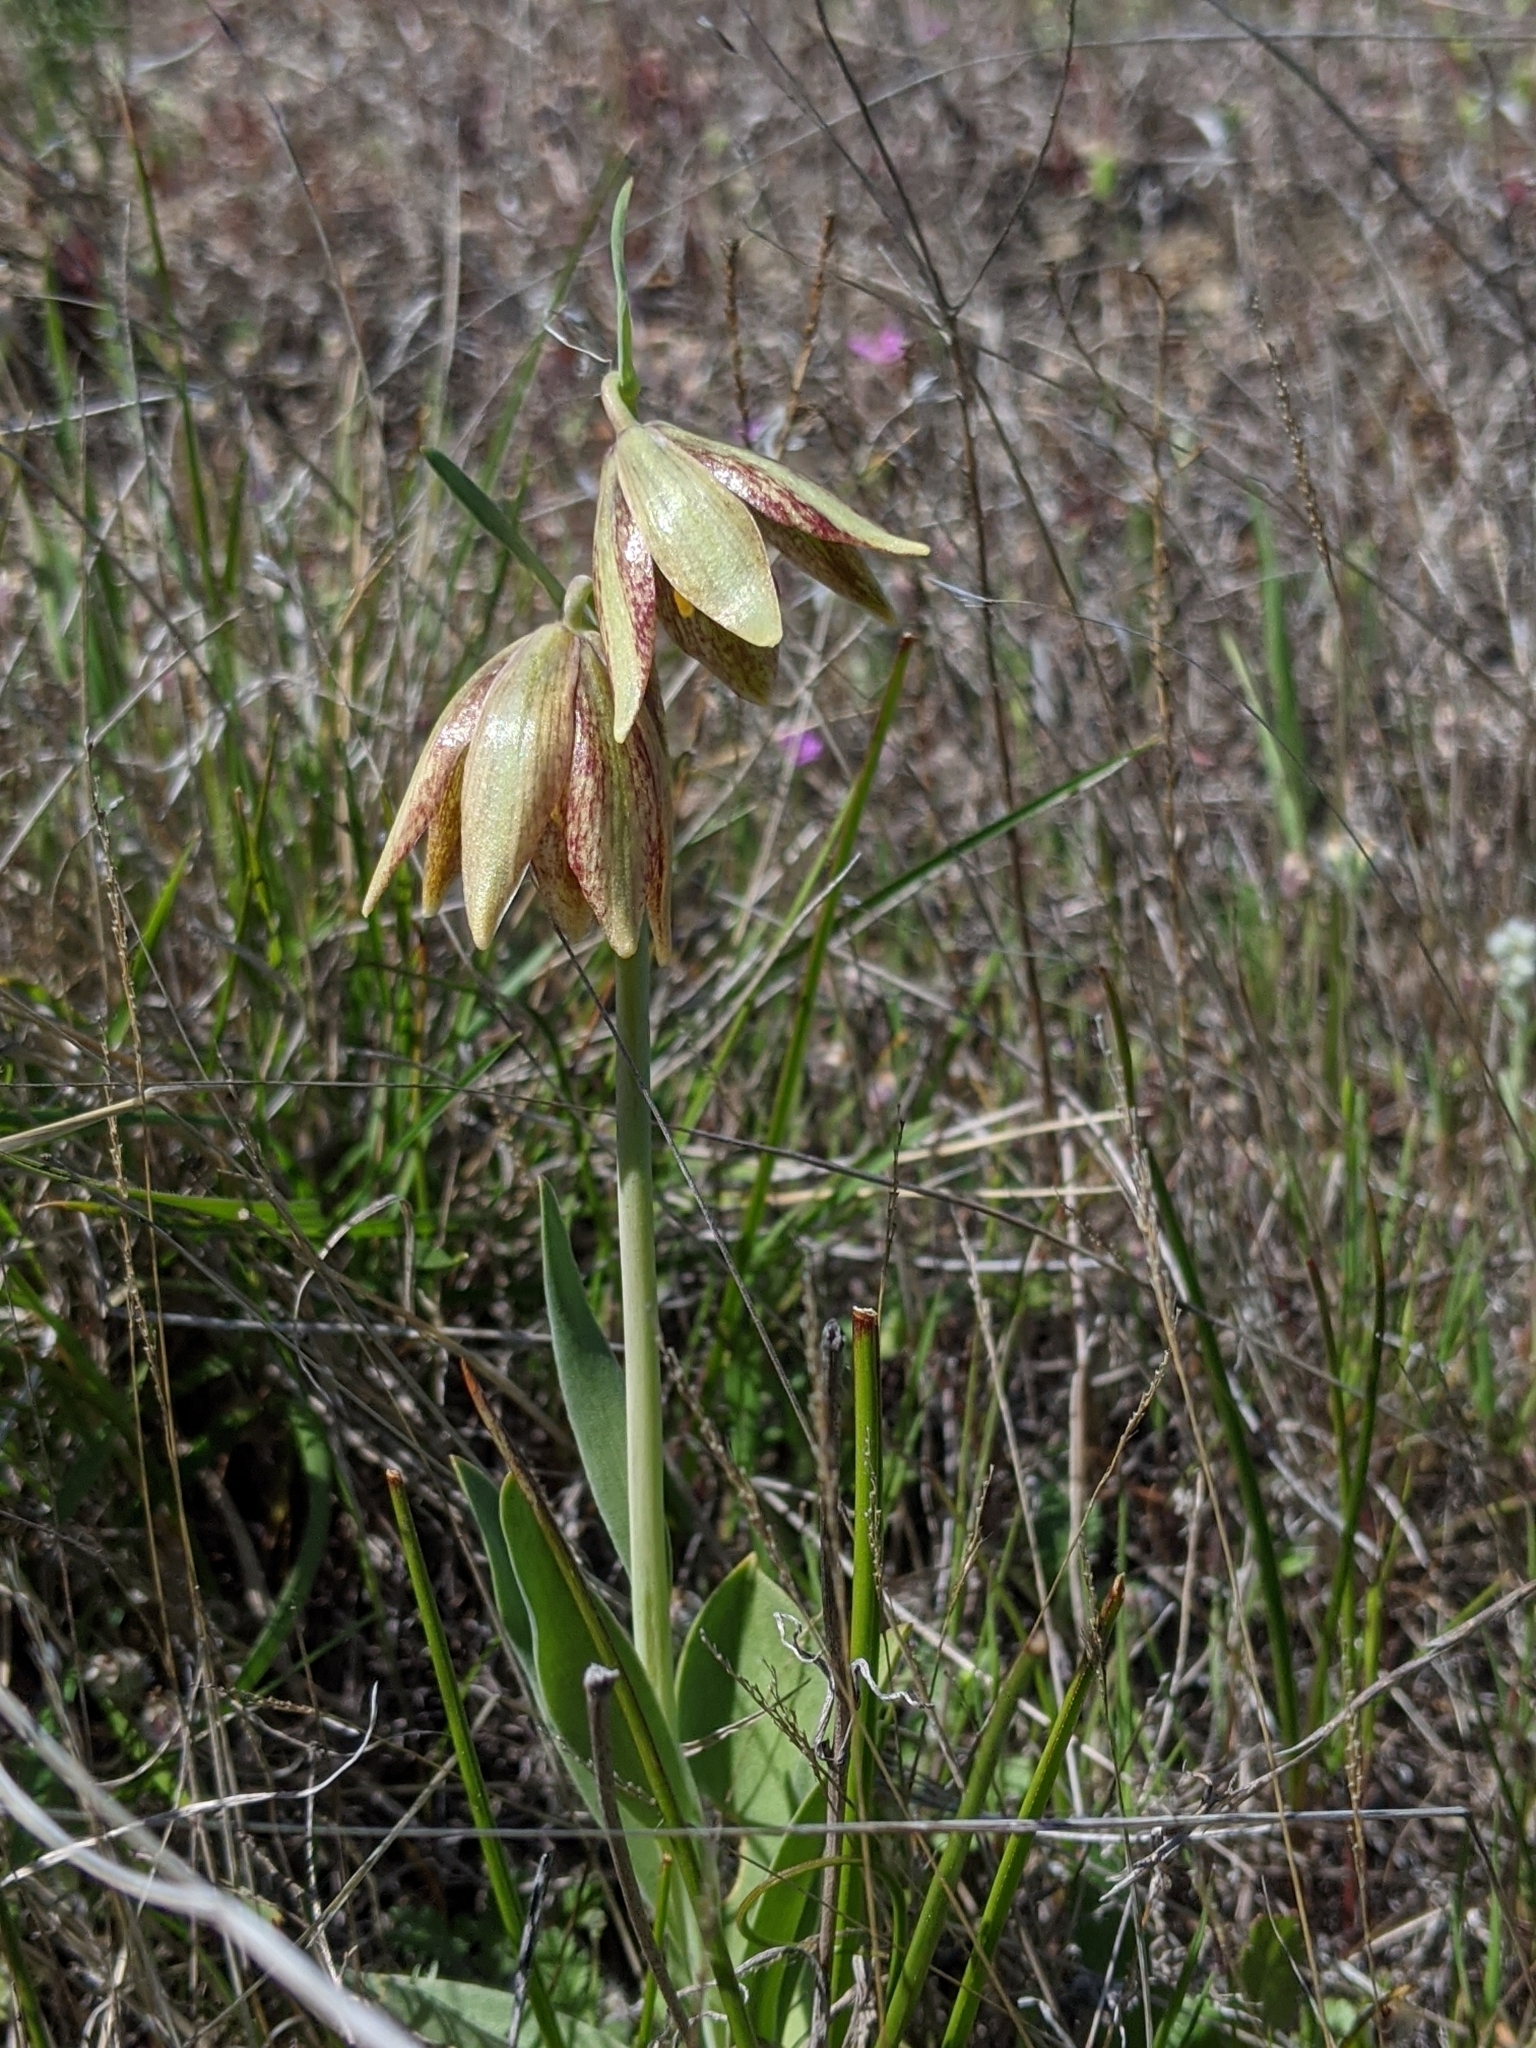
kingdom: Plantae
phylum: Tracheophyta
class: Liliopsida
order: Liliales
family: Liliaceae
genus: Fritillaria
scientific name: Fritillaria agrestis
